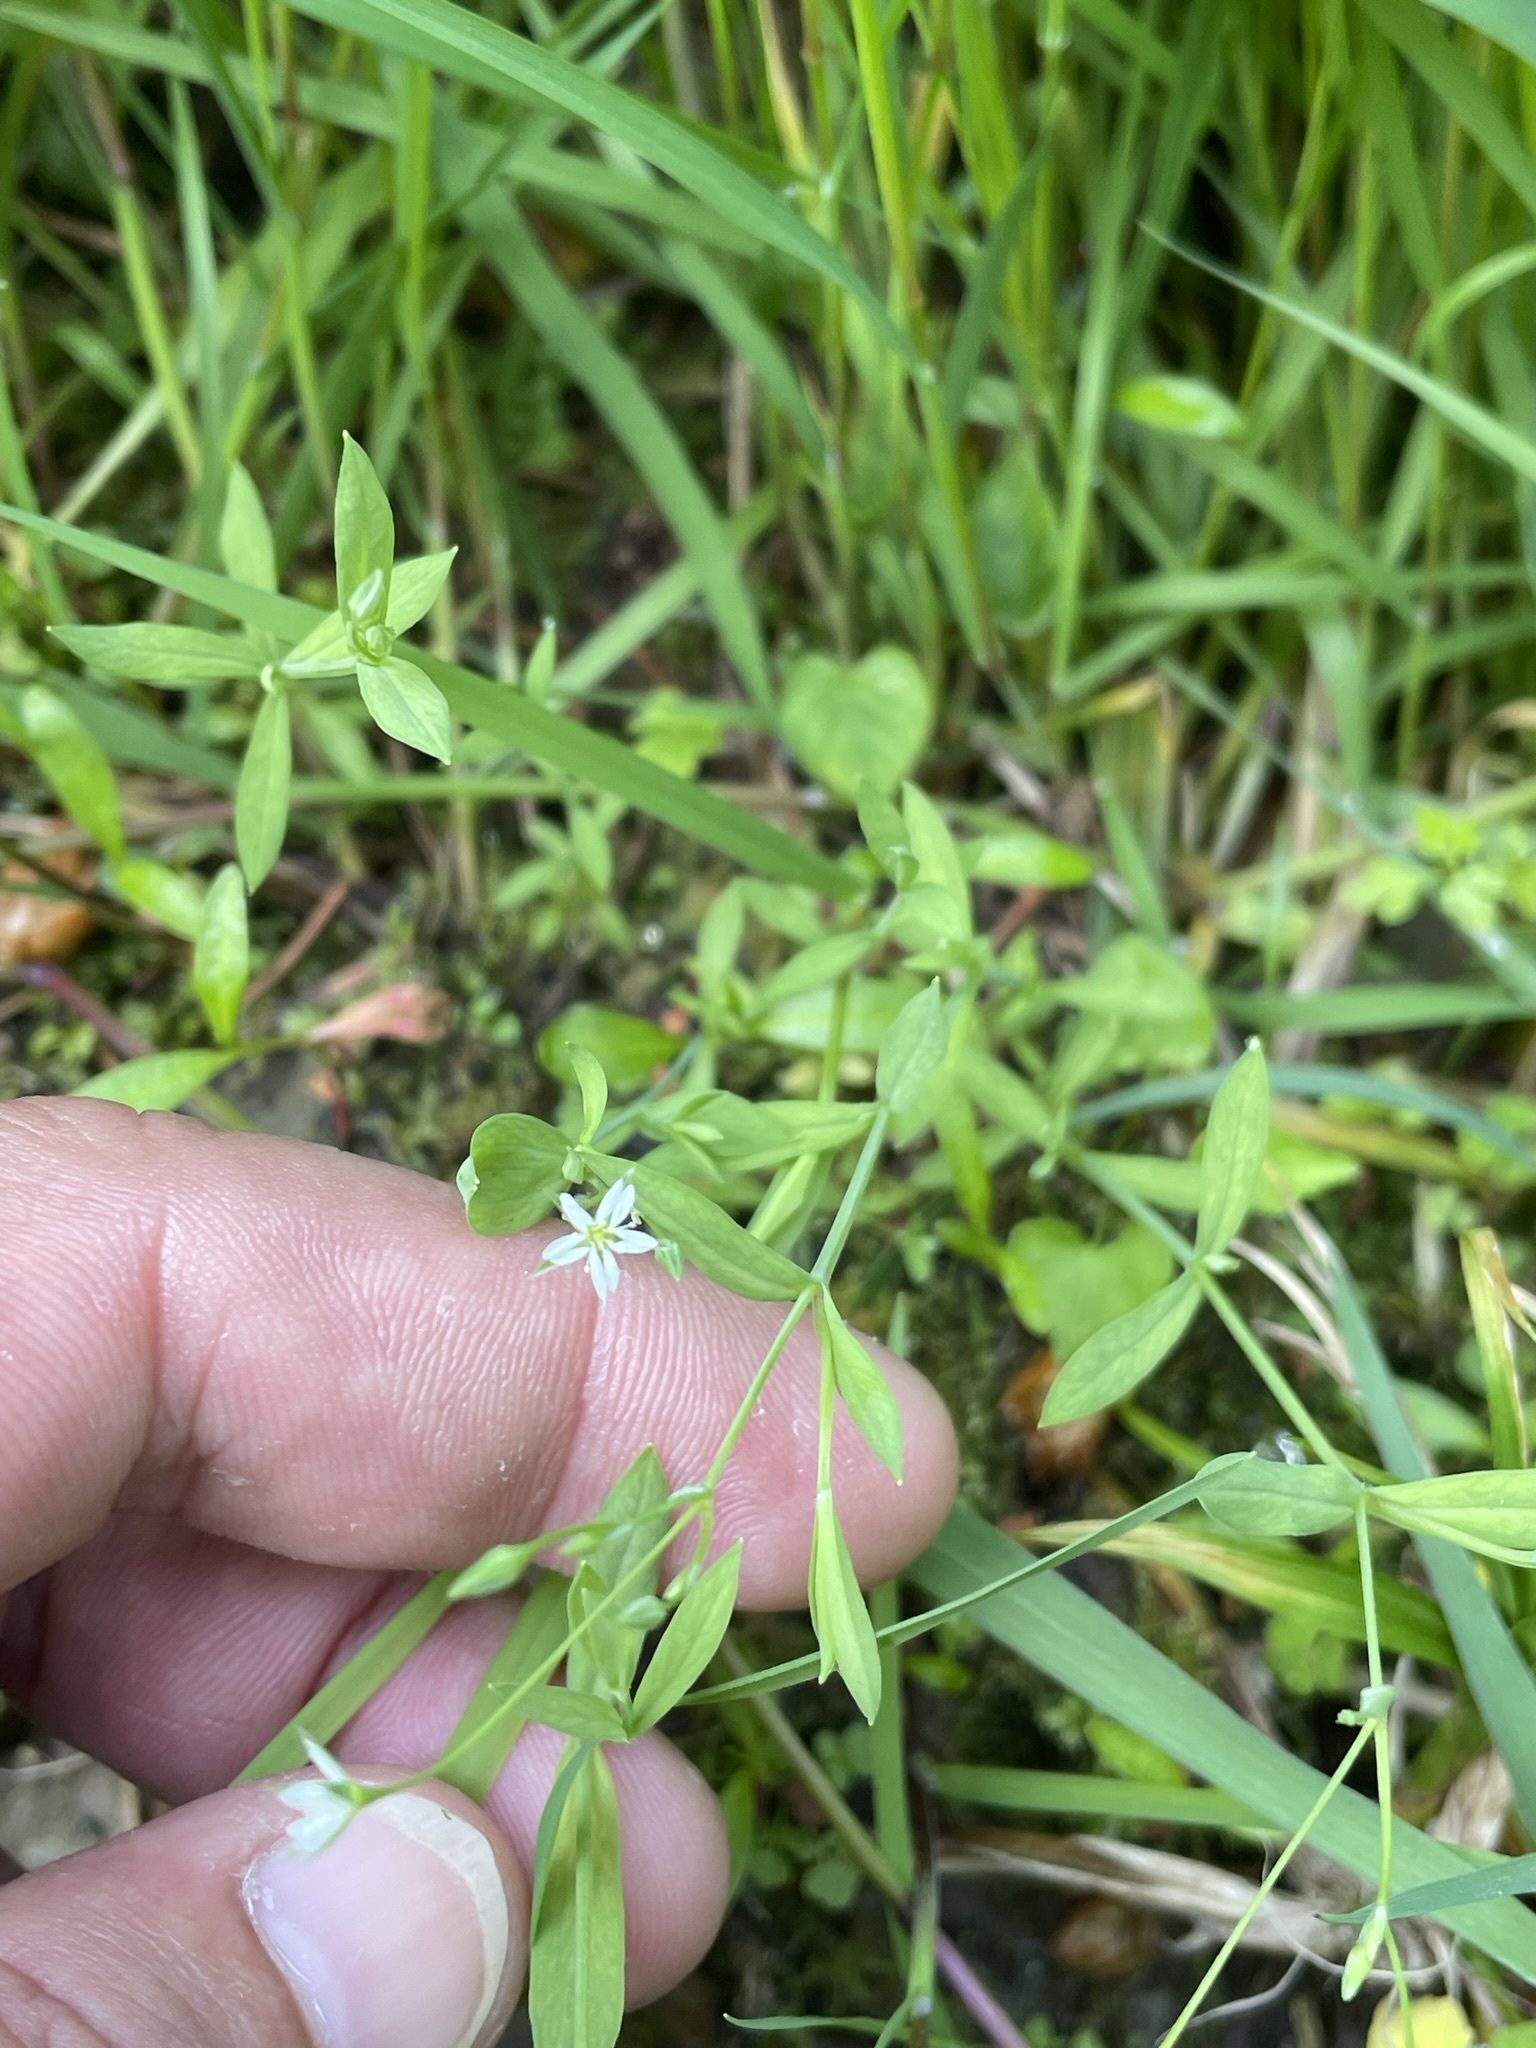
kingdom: Plantae
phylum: Tracheophyta
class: Magnoliopsida
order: Caryophyllales
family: Caryophyllaceae
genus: Stellaria
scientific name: Stellaria alsine
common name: Bog stitchwort
